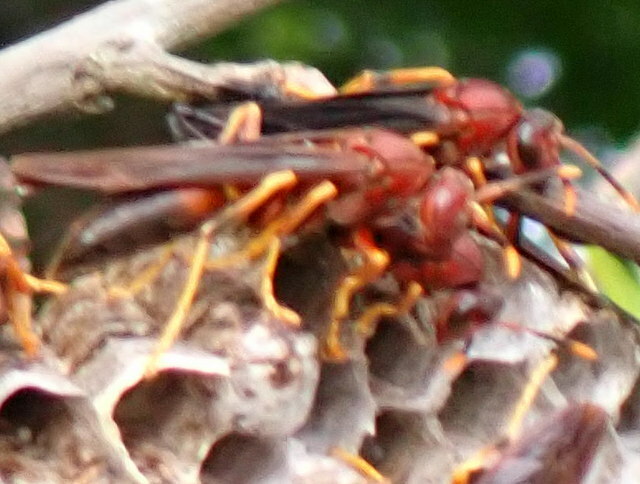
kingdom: Animalia
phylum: Arthropoda
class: Insecta
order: Hymenoptera
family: Eumenidae
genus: Polistes
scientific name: Polistes annularis
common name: Ringed paper wasp
